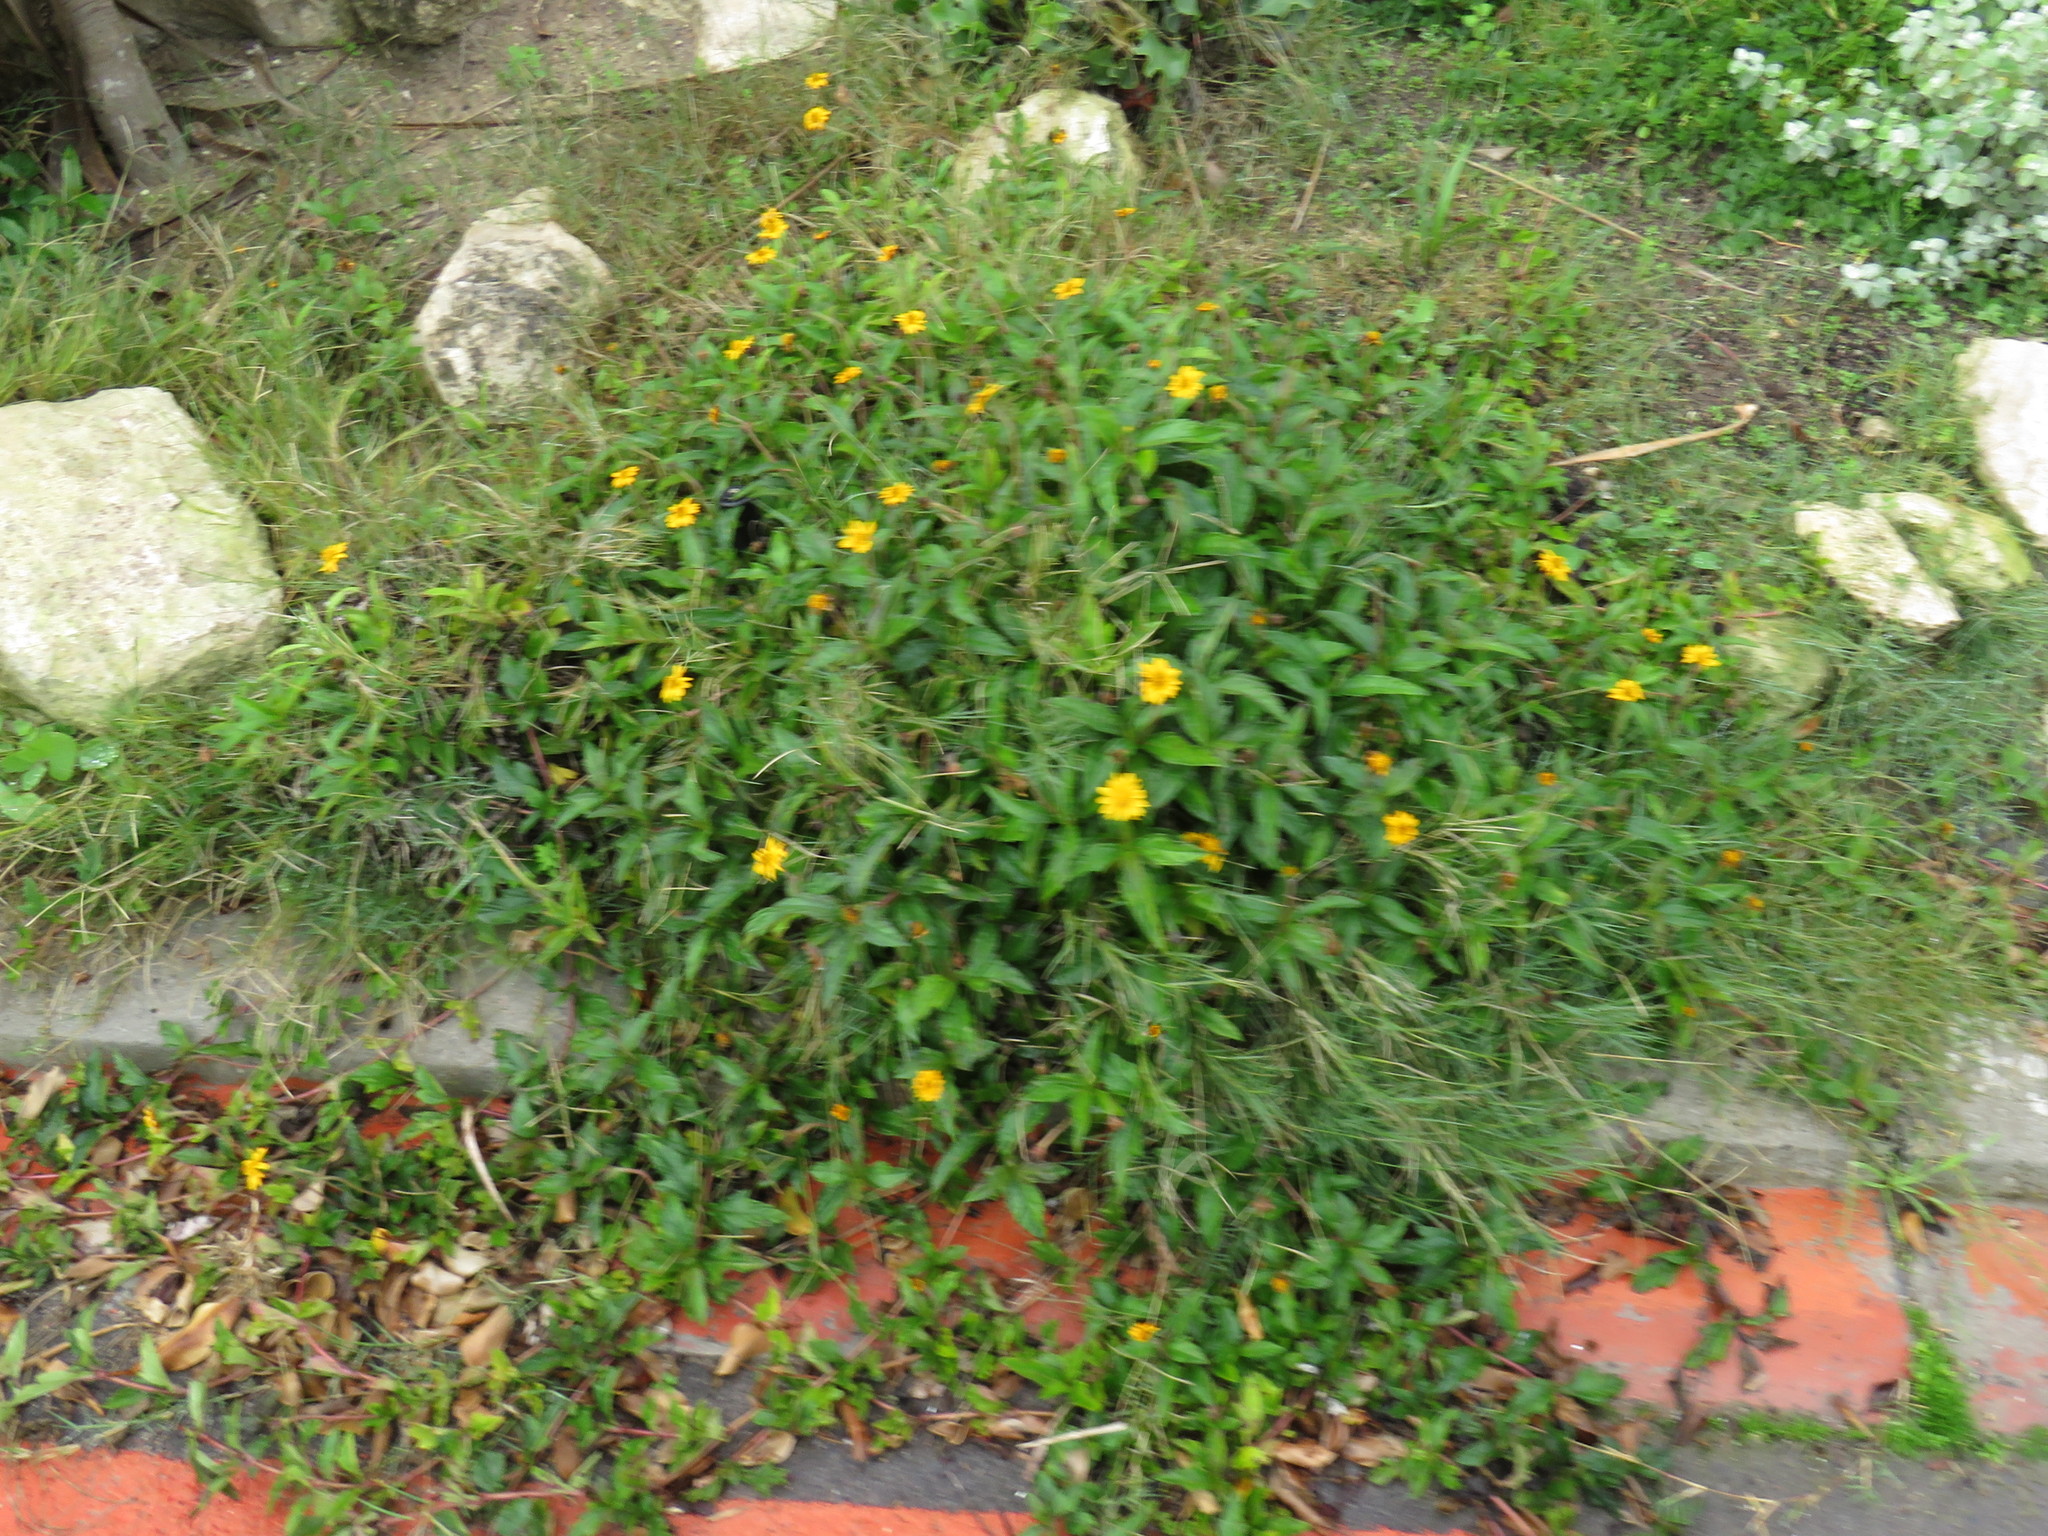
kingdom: Plantae
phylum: Tracheophyta
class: Magnoliopsida
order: Asterales
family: Asteraceae
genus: Sphagneticola
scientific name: Sphagneticola trilobata
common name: Bay biscayne creeping-oxeye
